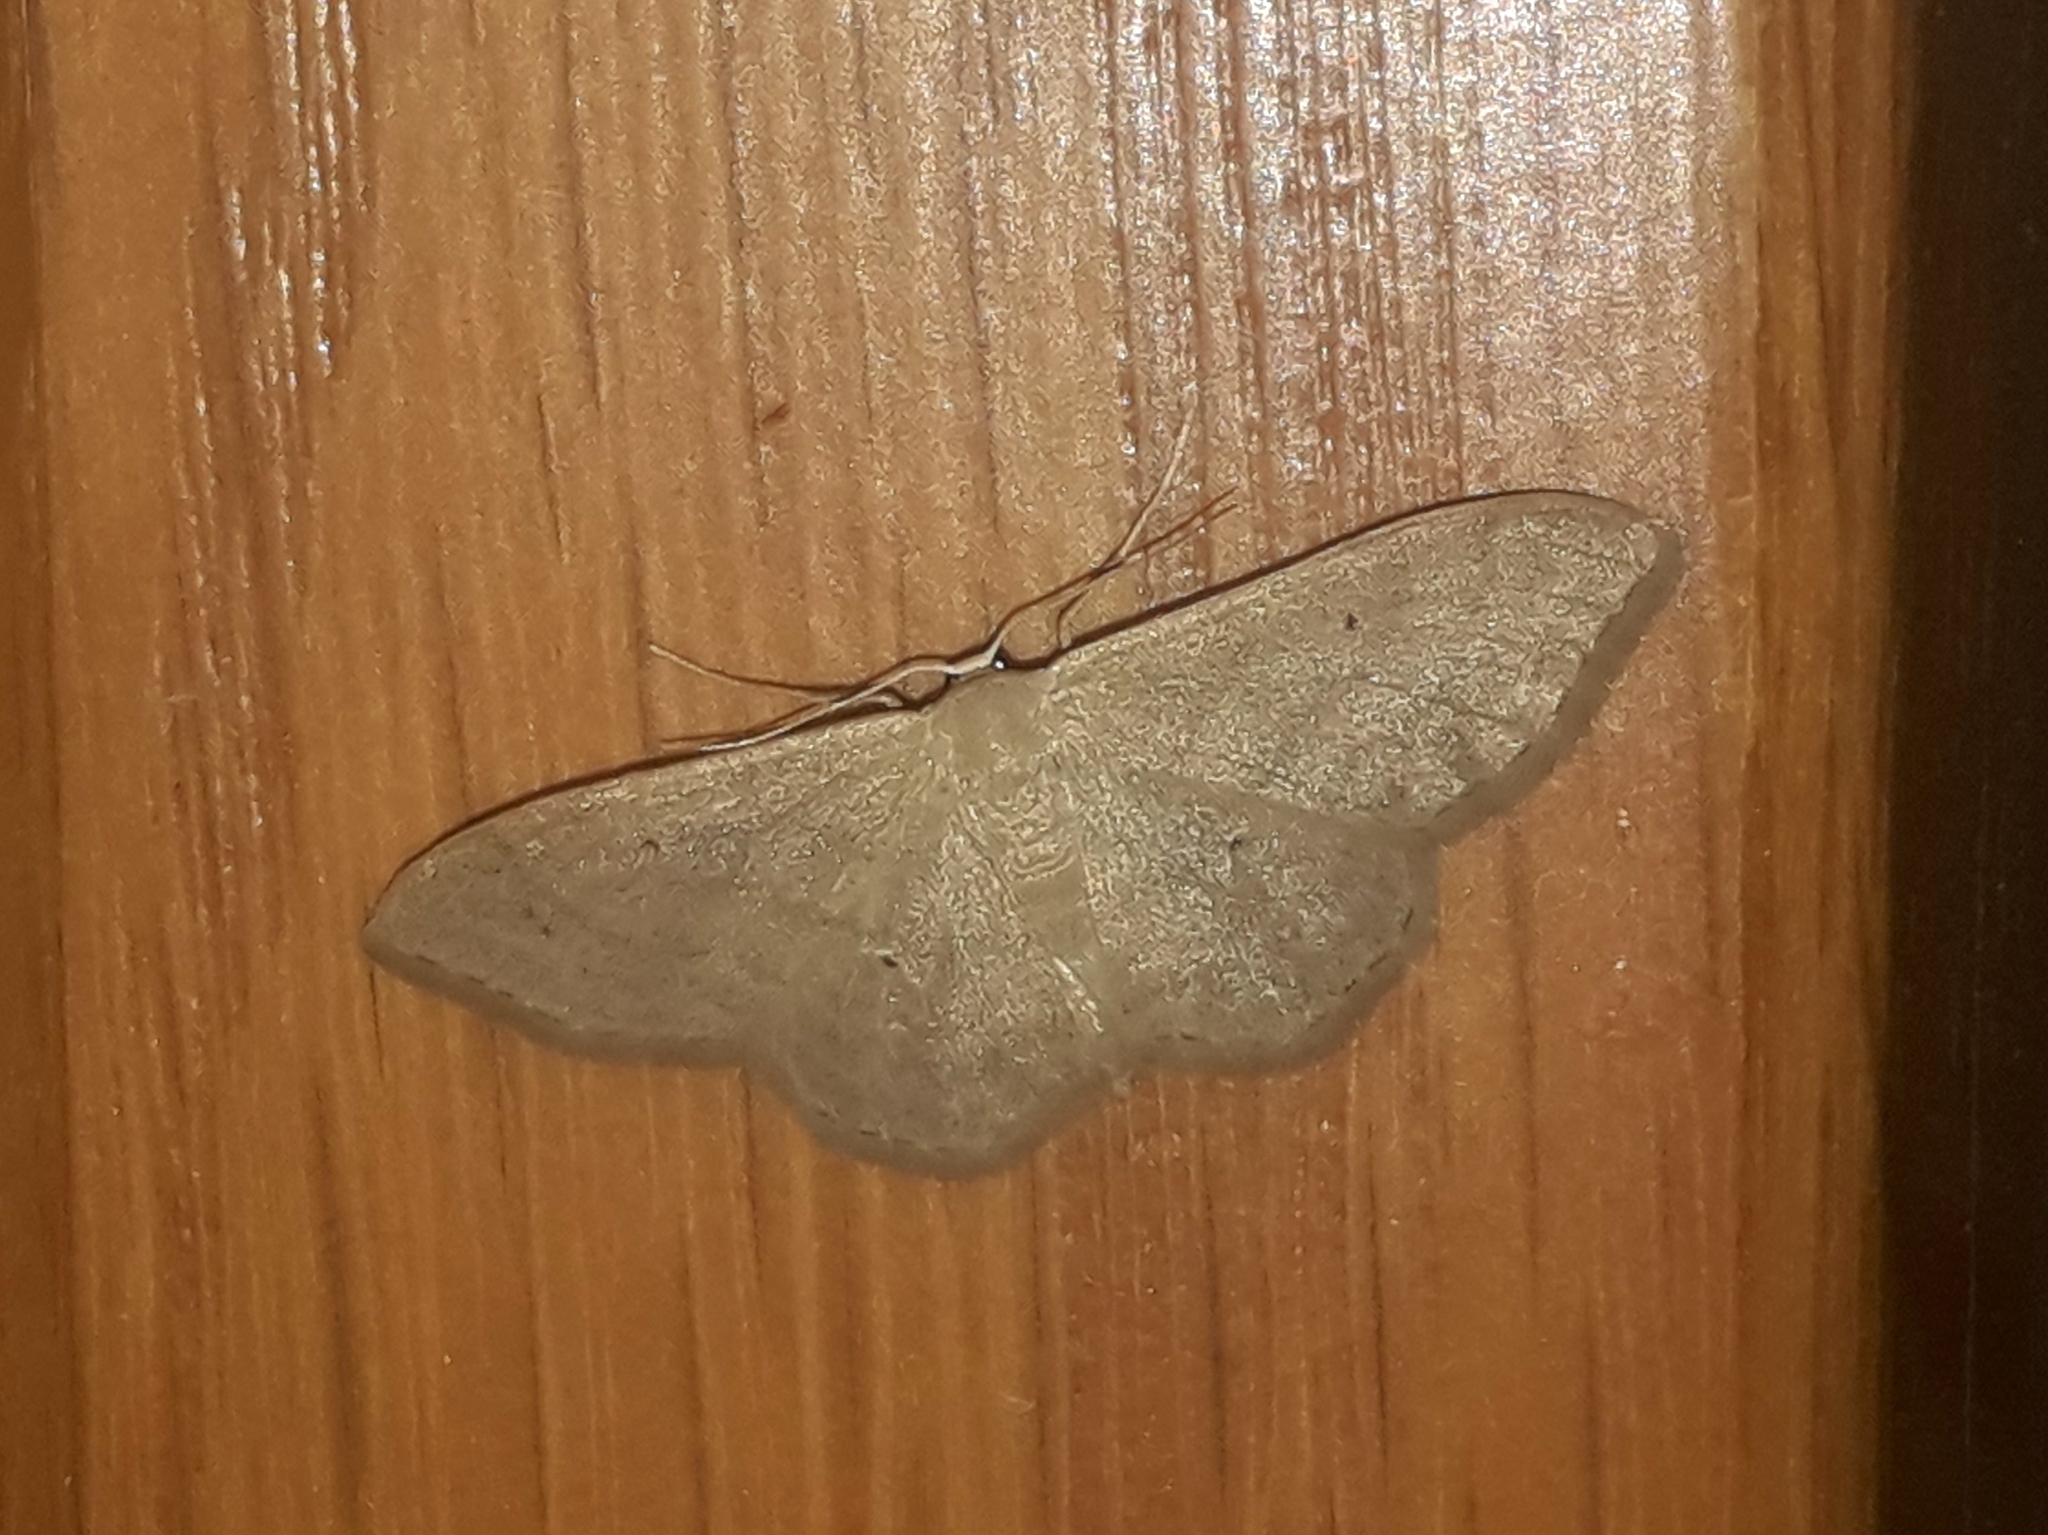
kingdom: Animalia
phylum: Arthropoda
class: Insecta
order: Lepidoptera
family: Geometridae
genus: Idaea
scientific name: Idaea straminata
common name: Plain wave
